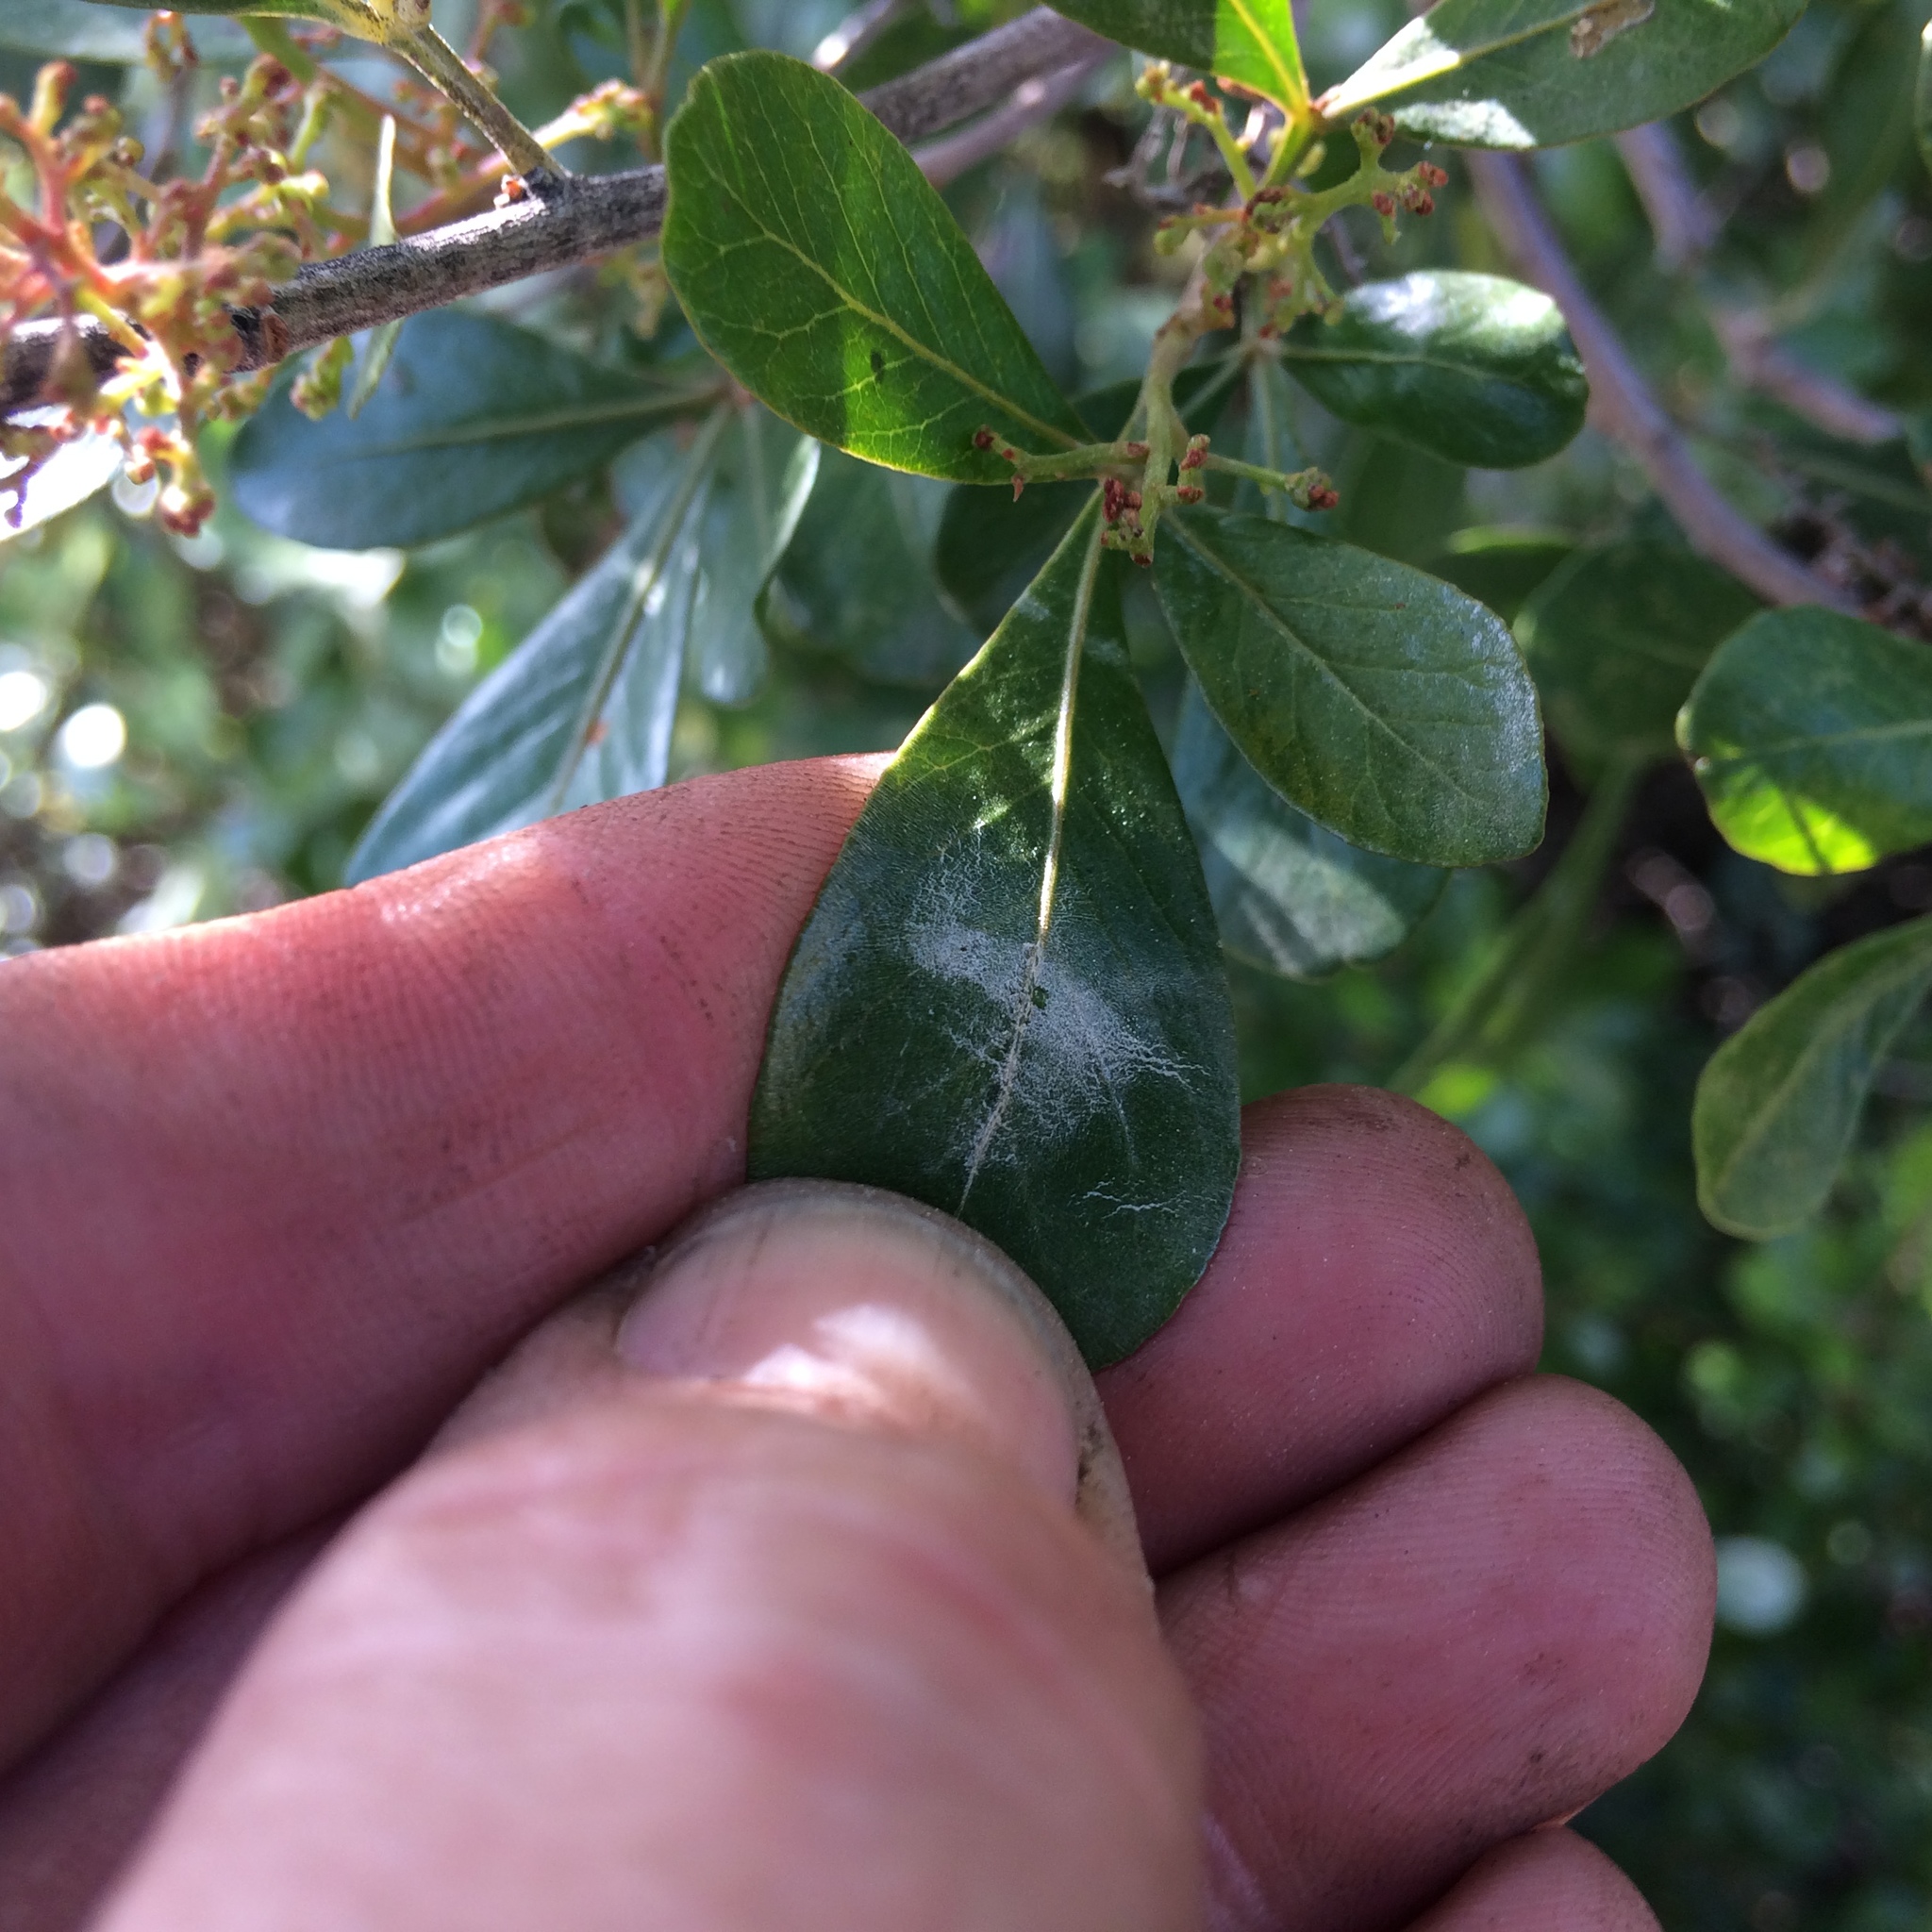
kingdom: Plantae
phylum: Tracheophyta
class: Magnoliopsida
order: Sapindales
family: Anacardiaceae
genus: Searsia
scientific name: Searsia lucida
